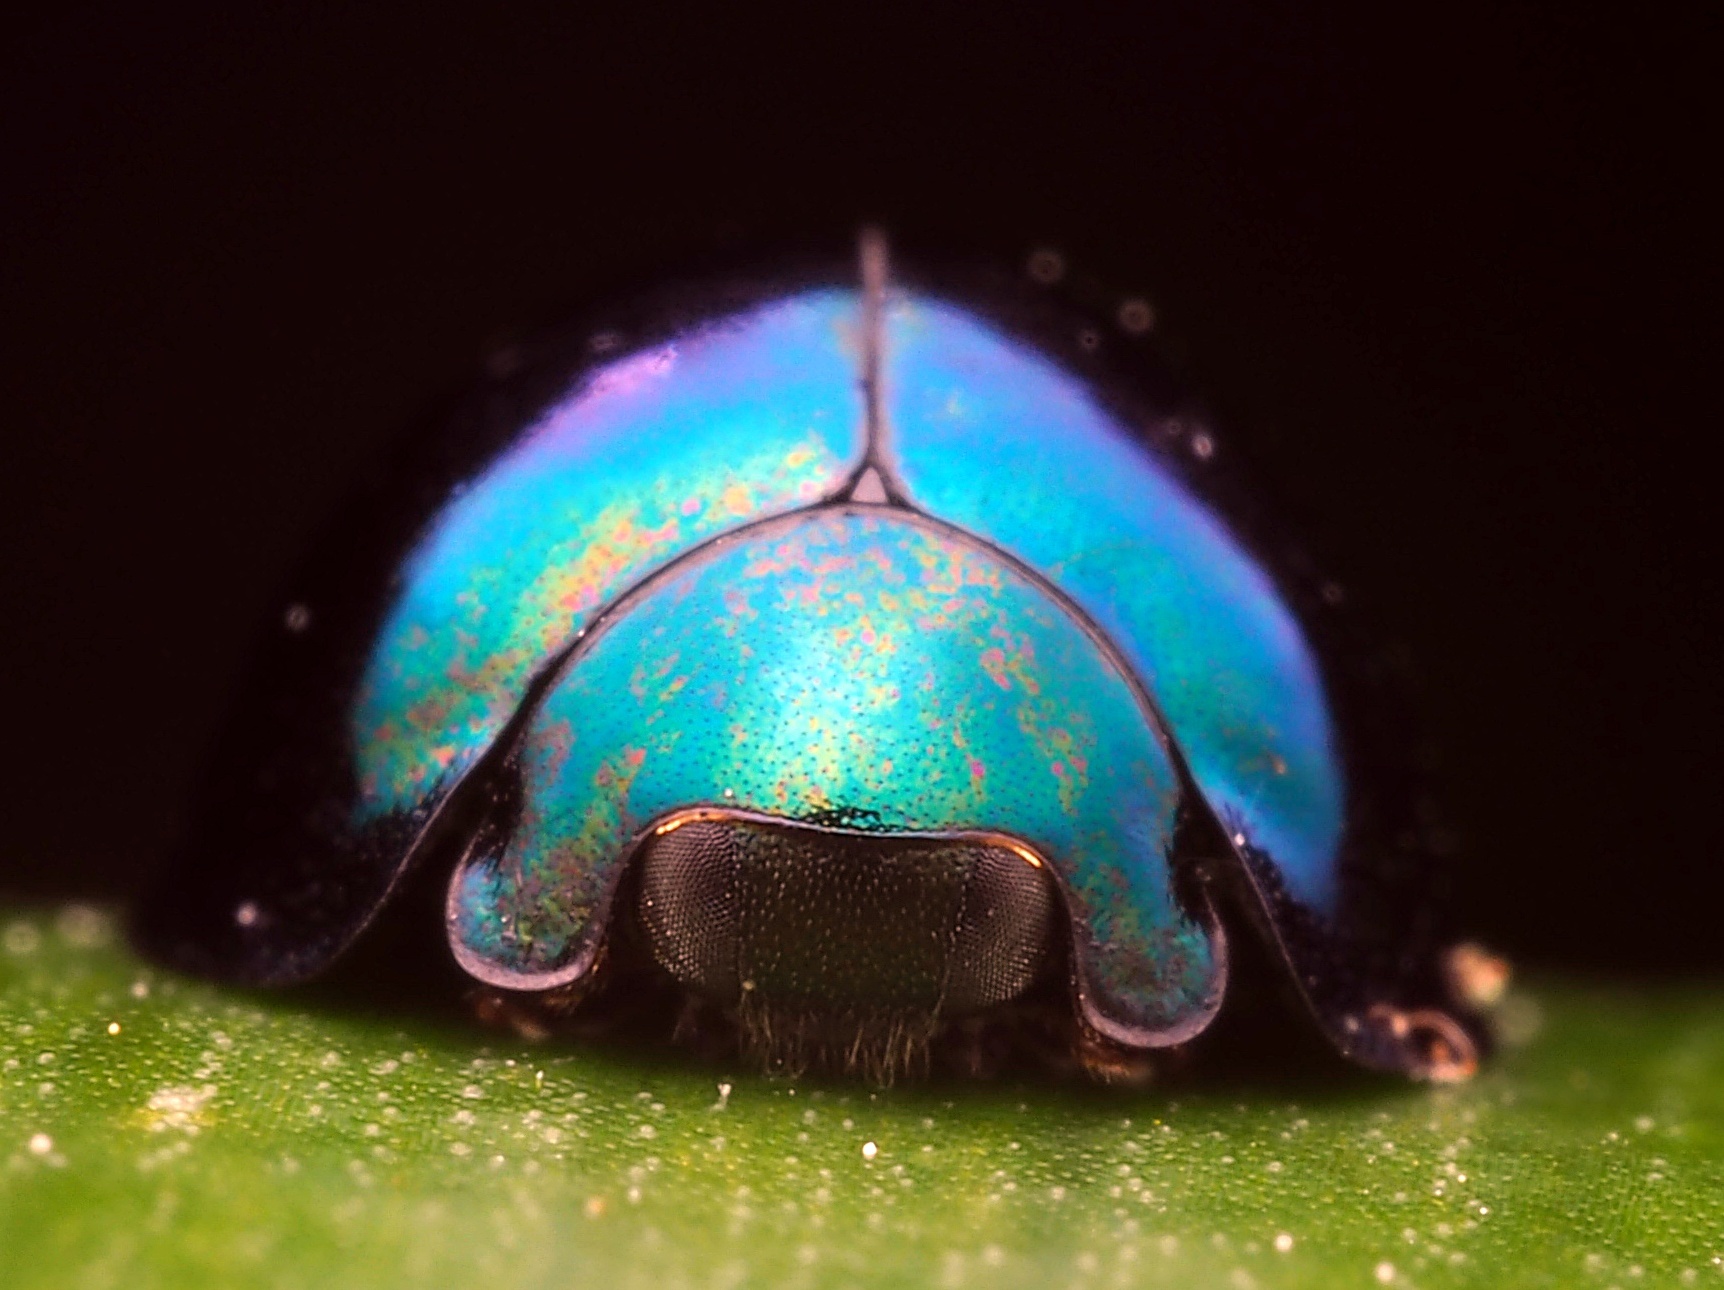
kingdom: Animalia
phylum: Arthropoda
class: Insecta
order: Coleoptera
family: Coccinellidae
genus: Halmus
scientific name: Halmus chalybeus
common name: Steel blue ladybird beetle
